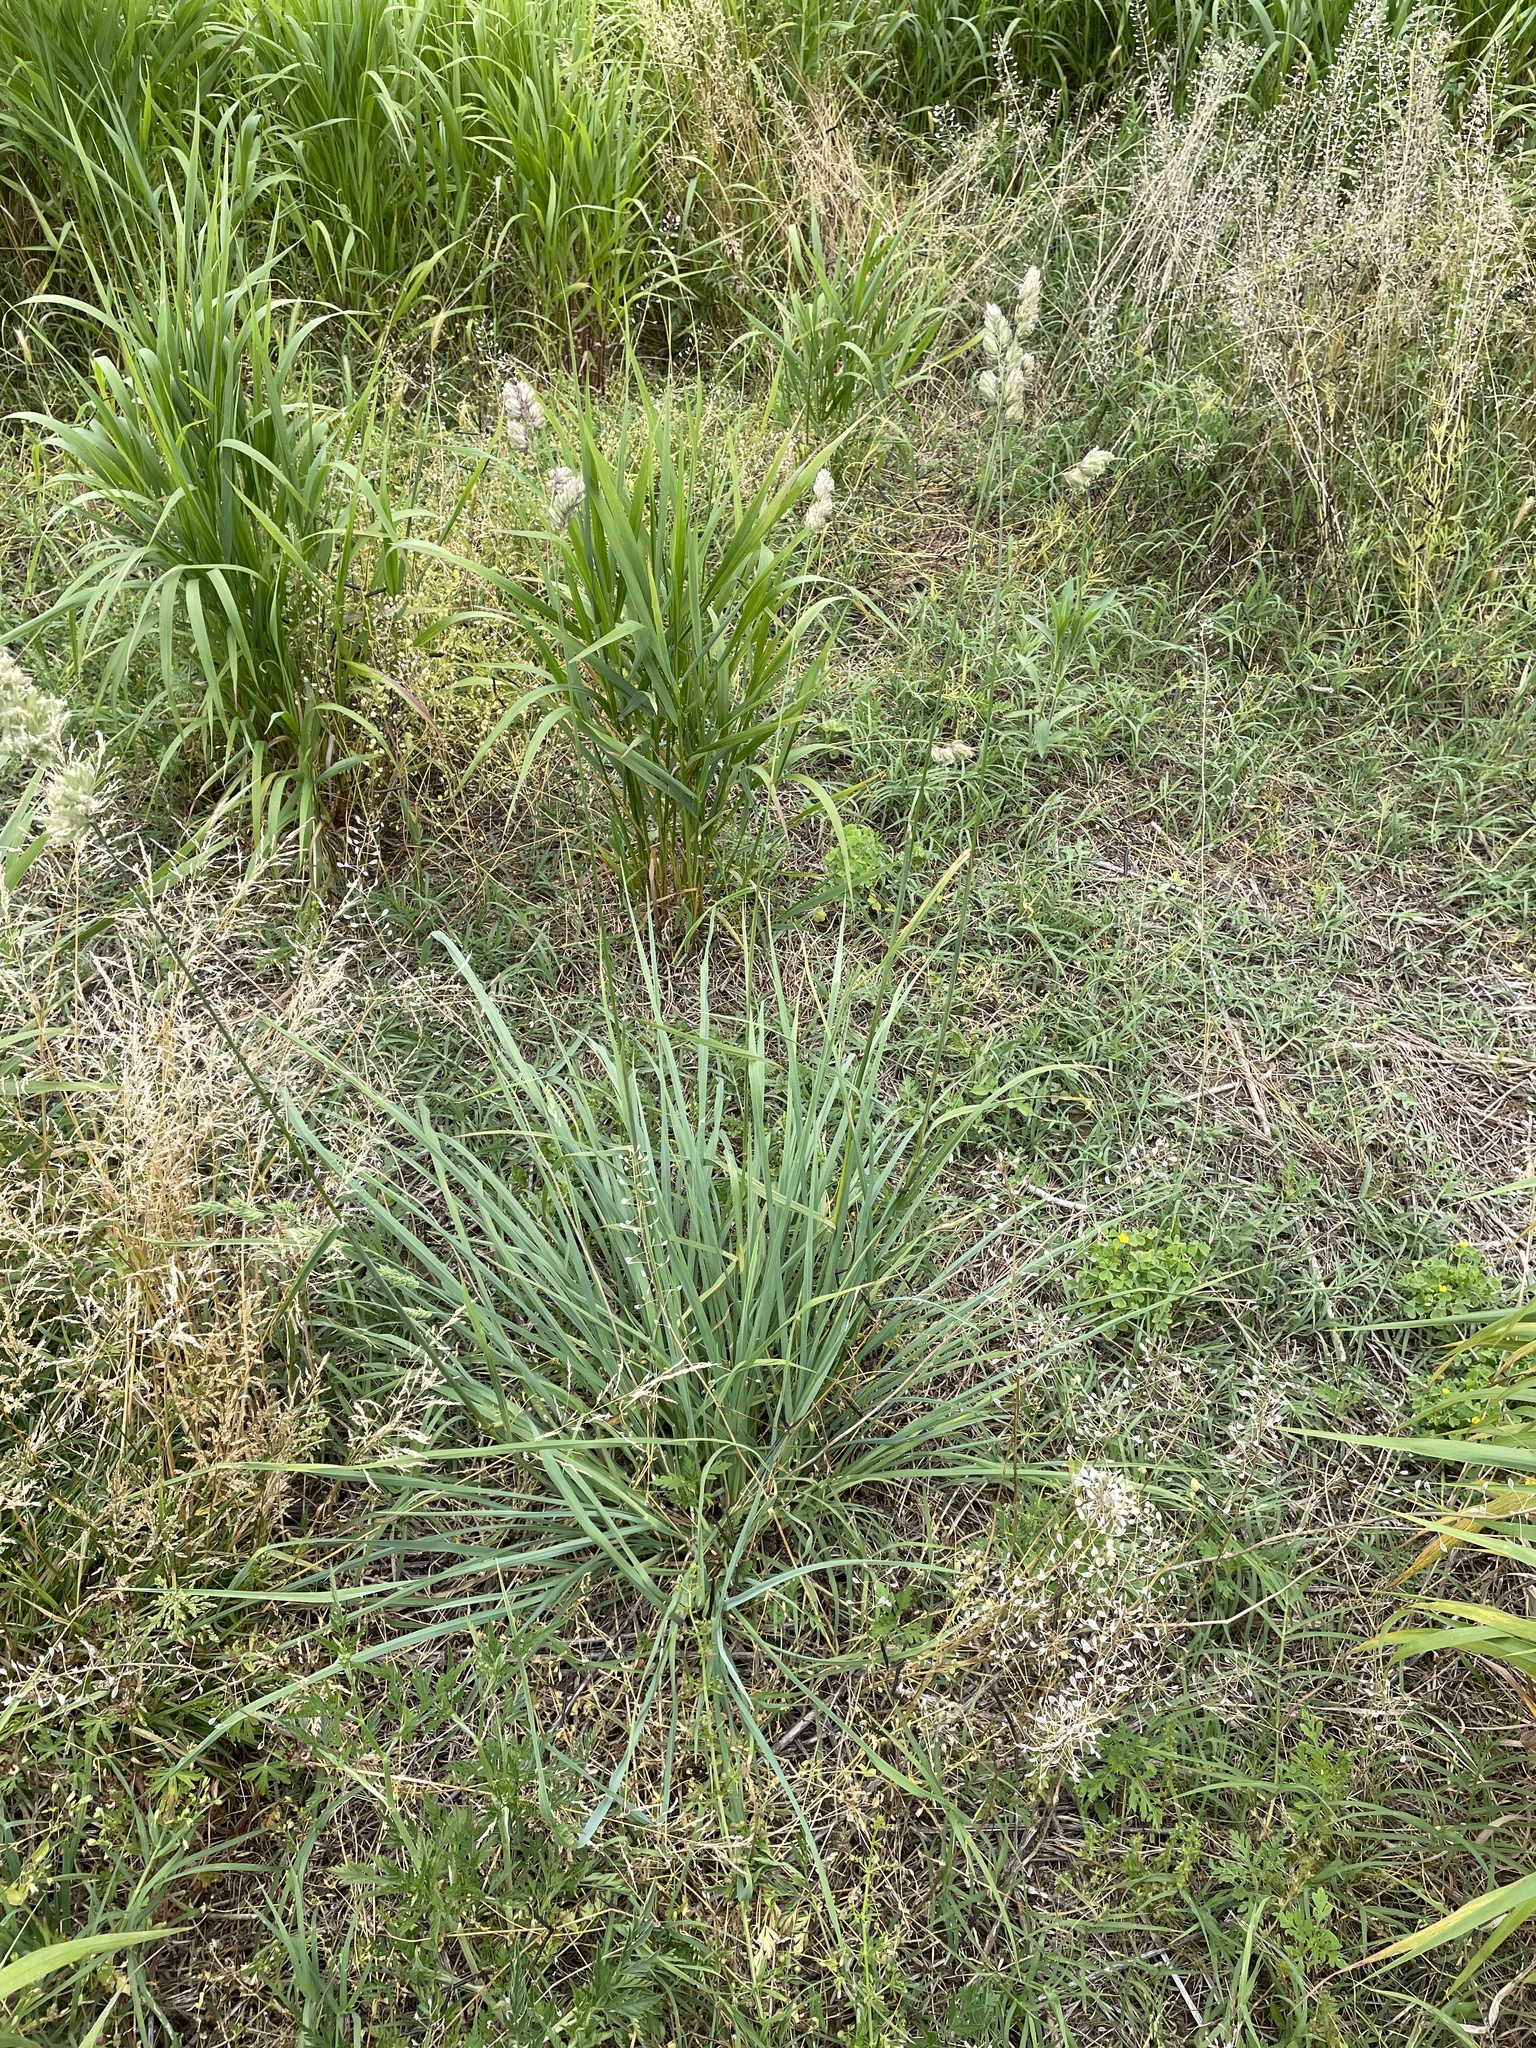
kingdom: Plantae
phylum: Tracheophyta
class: Liliopsida
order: Poales
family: Poaceae
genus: Dactylis
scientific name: Dactylis glomerata
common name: Orchardgrass
